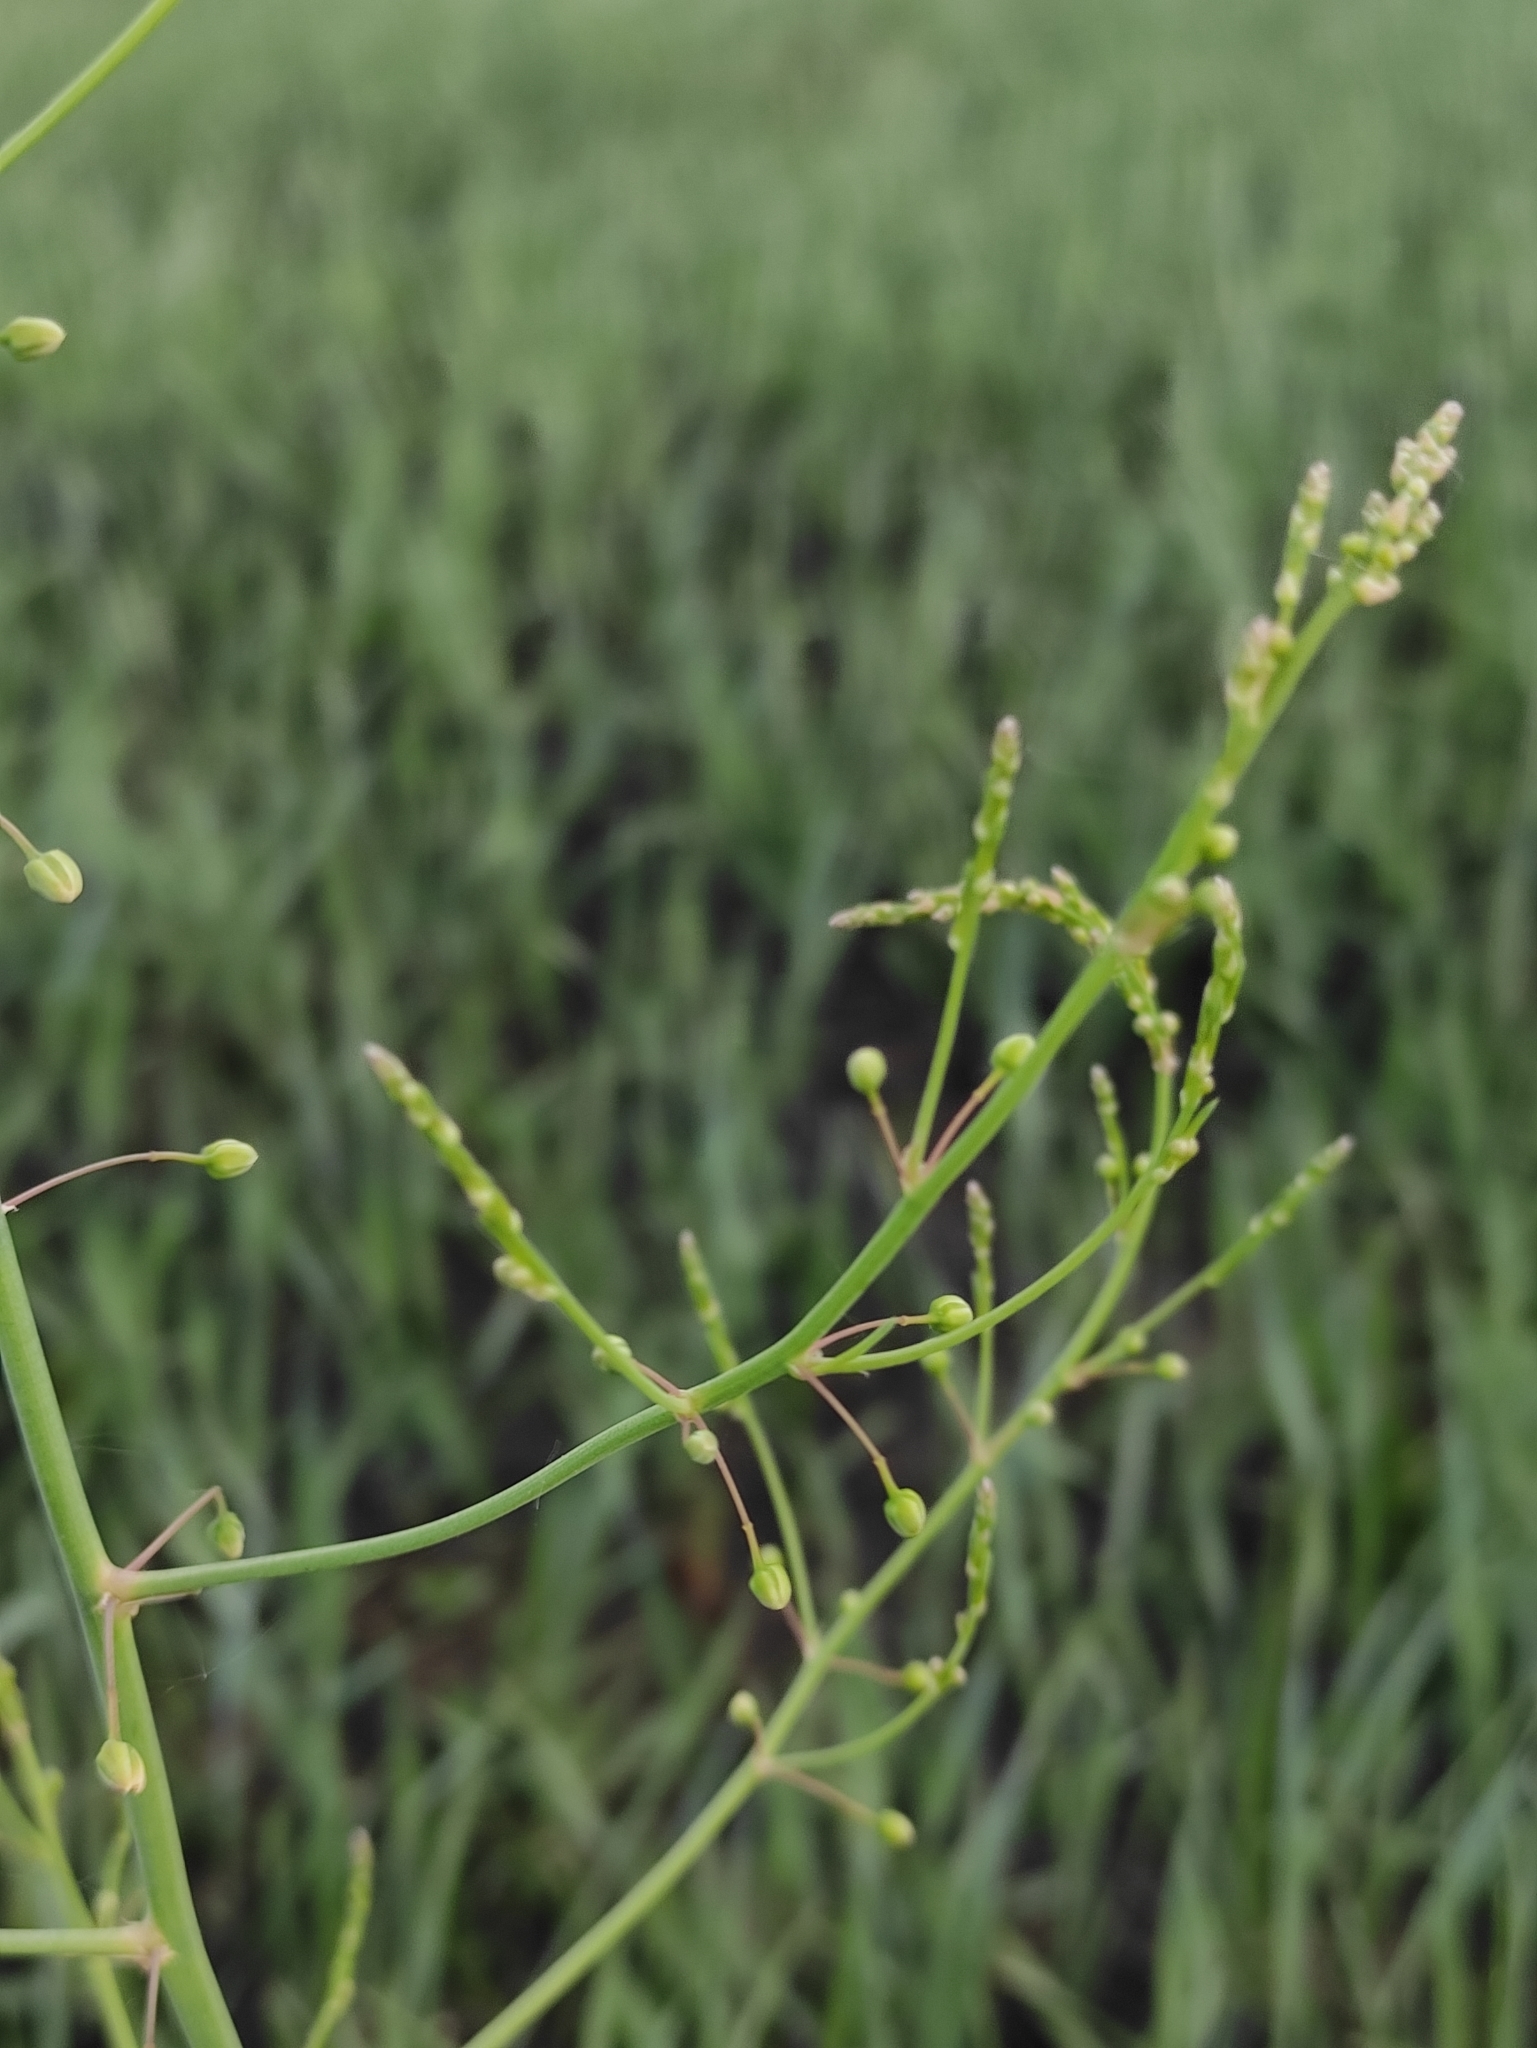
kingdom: Plantae
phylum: Tracheophyta
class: Liliopsida
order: Asparagales
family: Asparagaceae
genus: Asparagus
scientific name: Asparagus officinalis
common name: Garden asparagus
